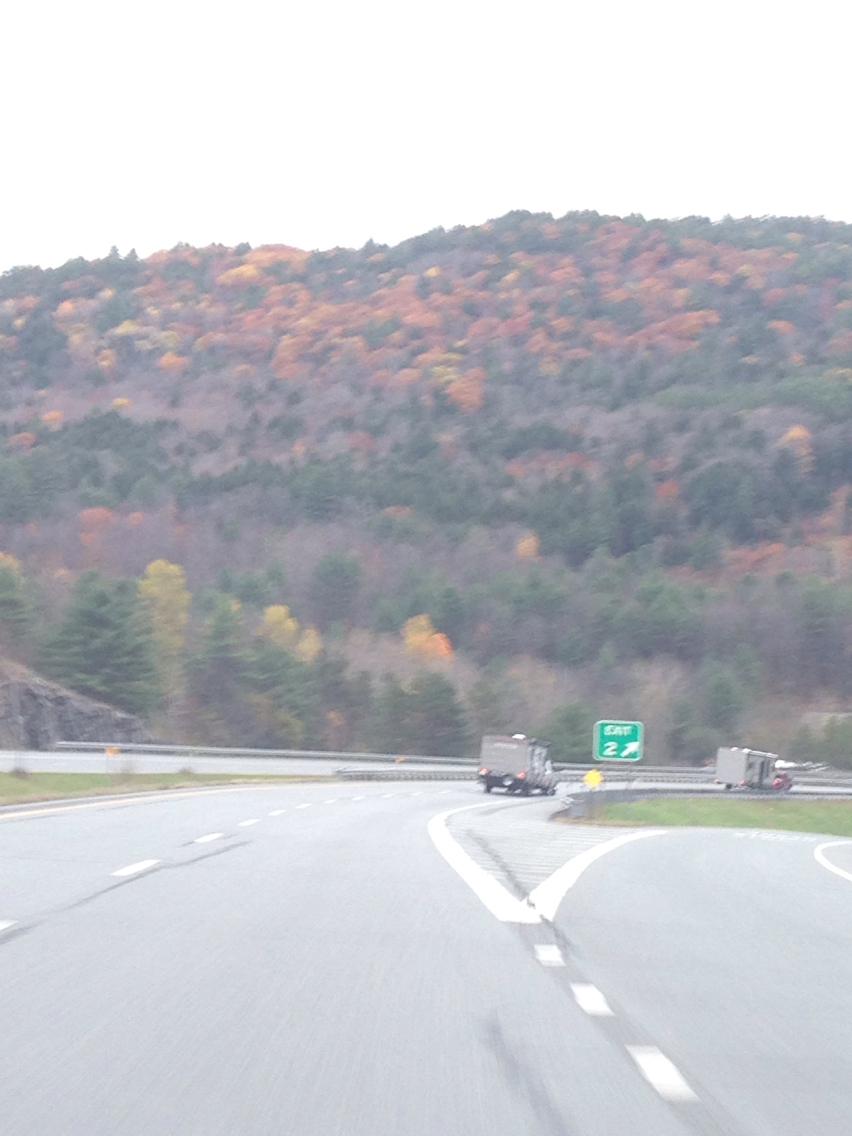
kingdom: Plantae
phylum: Tracheophyta
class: Magnoliopsida
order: Fagales
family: Fagaceae
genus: Quercus
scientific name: Quercus rubra
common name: Red oak
